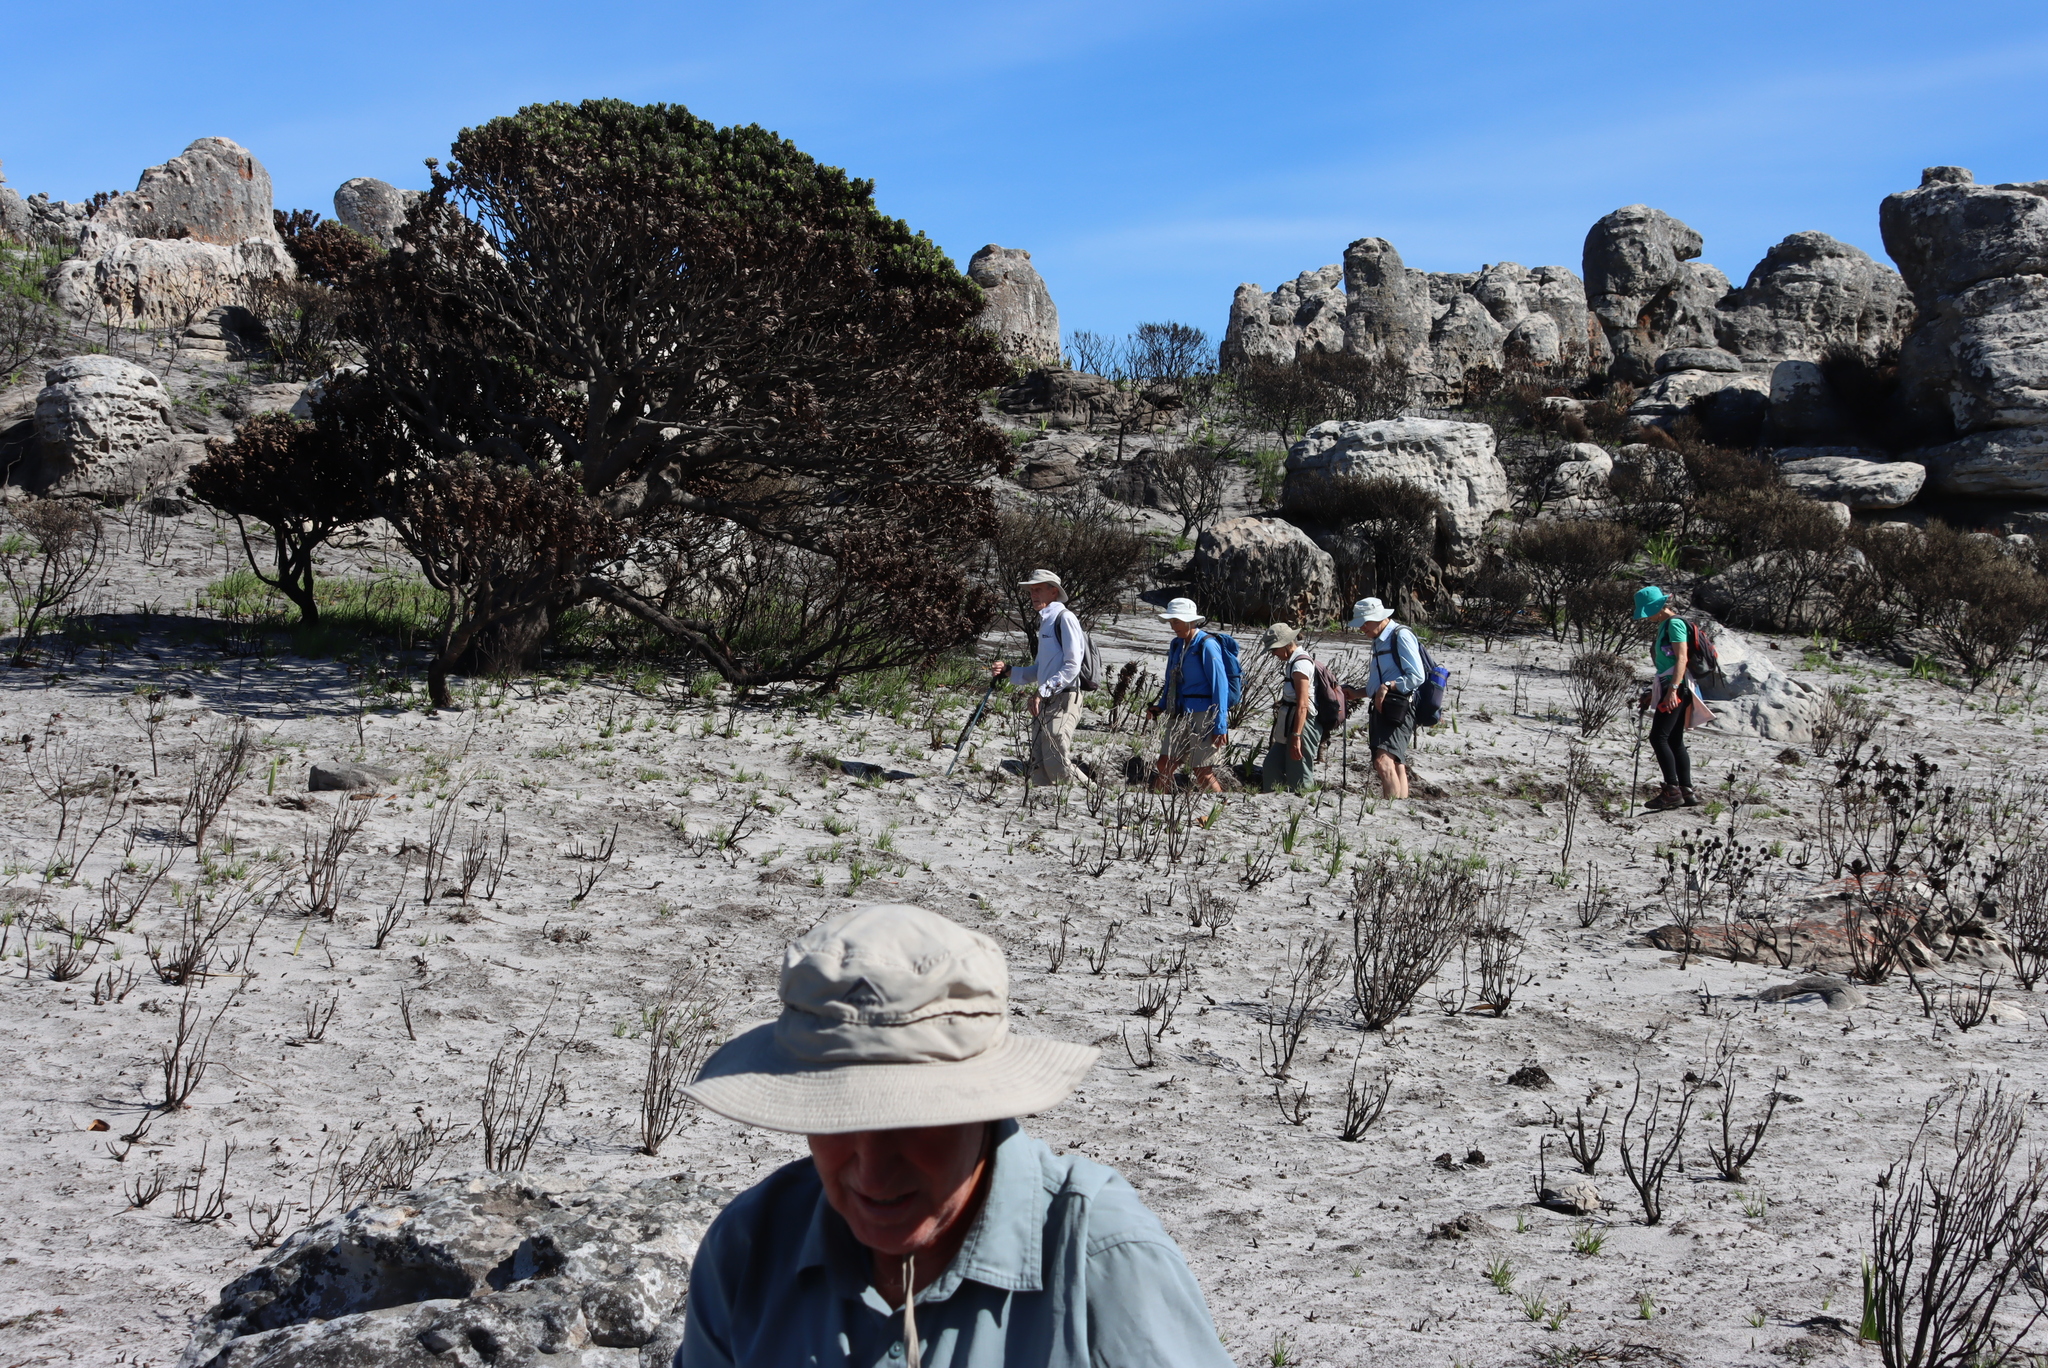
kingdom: Plantae
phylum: Tracheophyta
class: Magnoliopsida
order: Proteales
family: Proteaceae
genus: Mimetes
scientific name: Mimetes fimbriifolius
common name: Fringed bottlebrush
